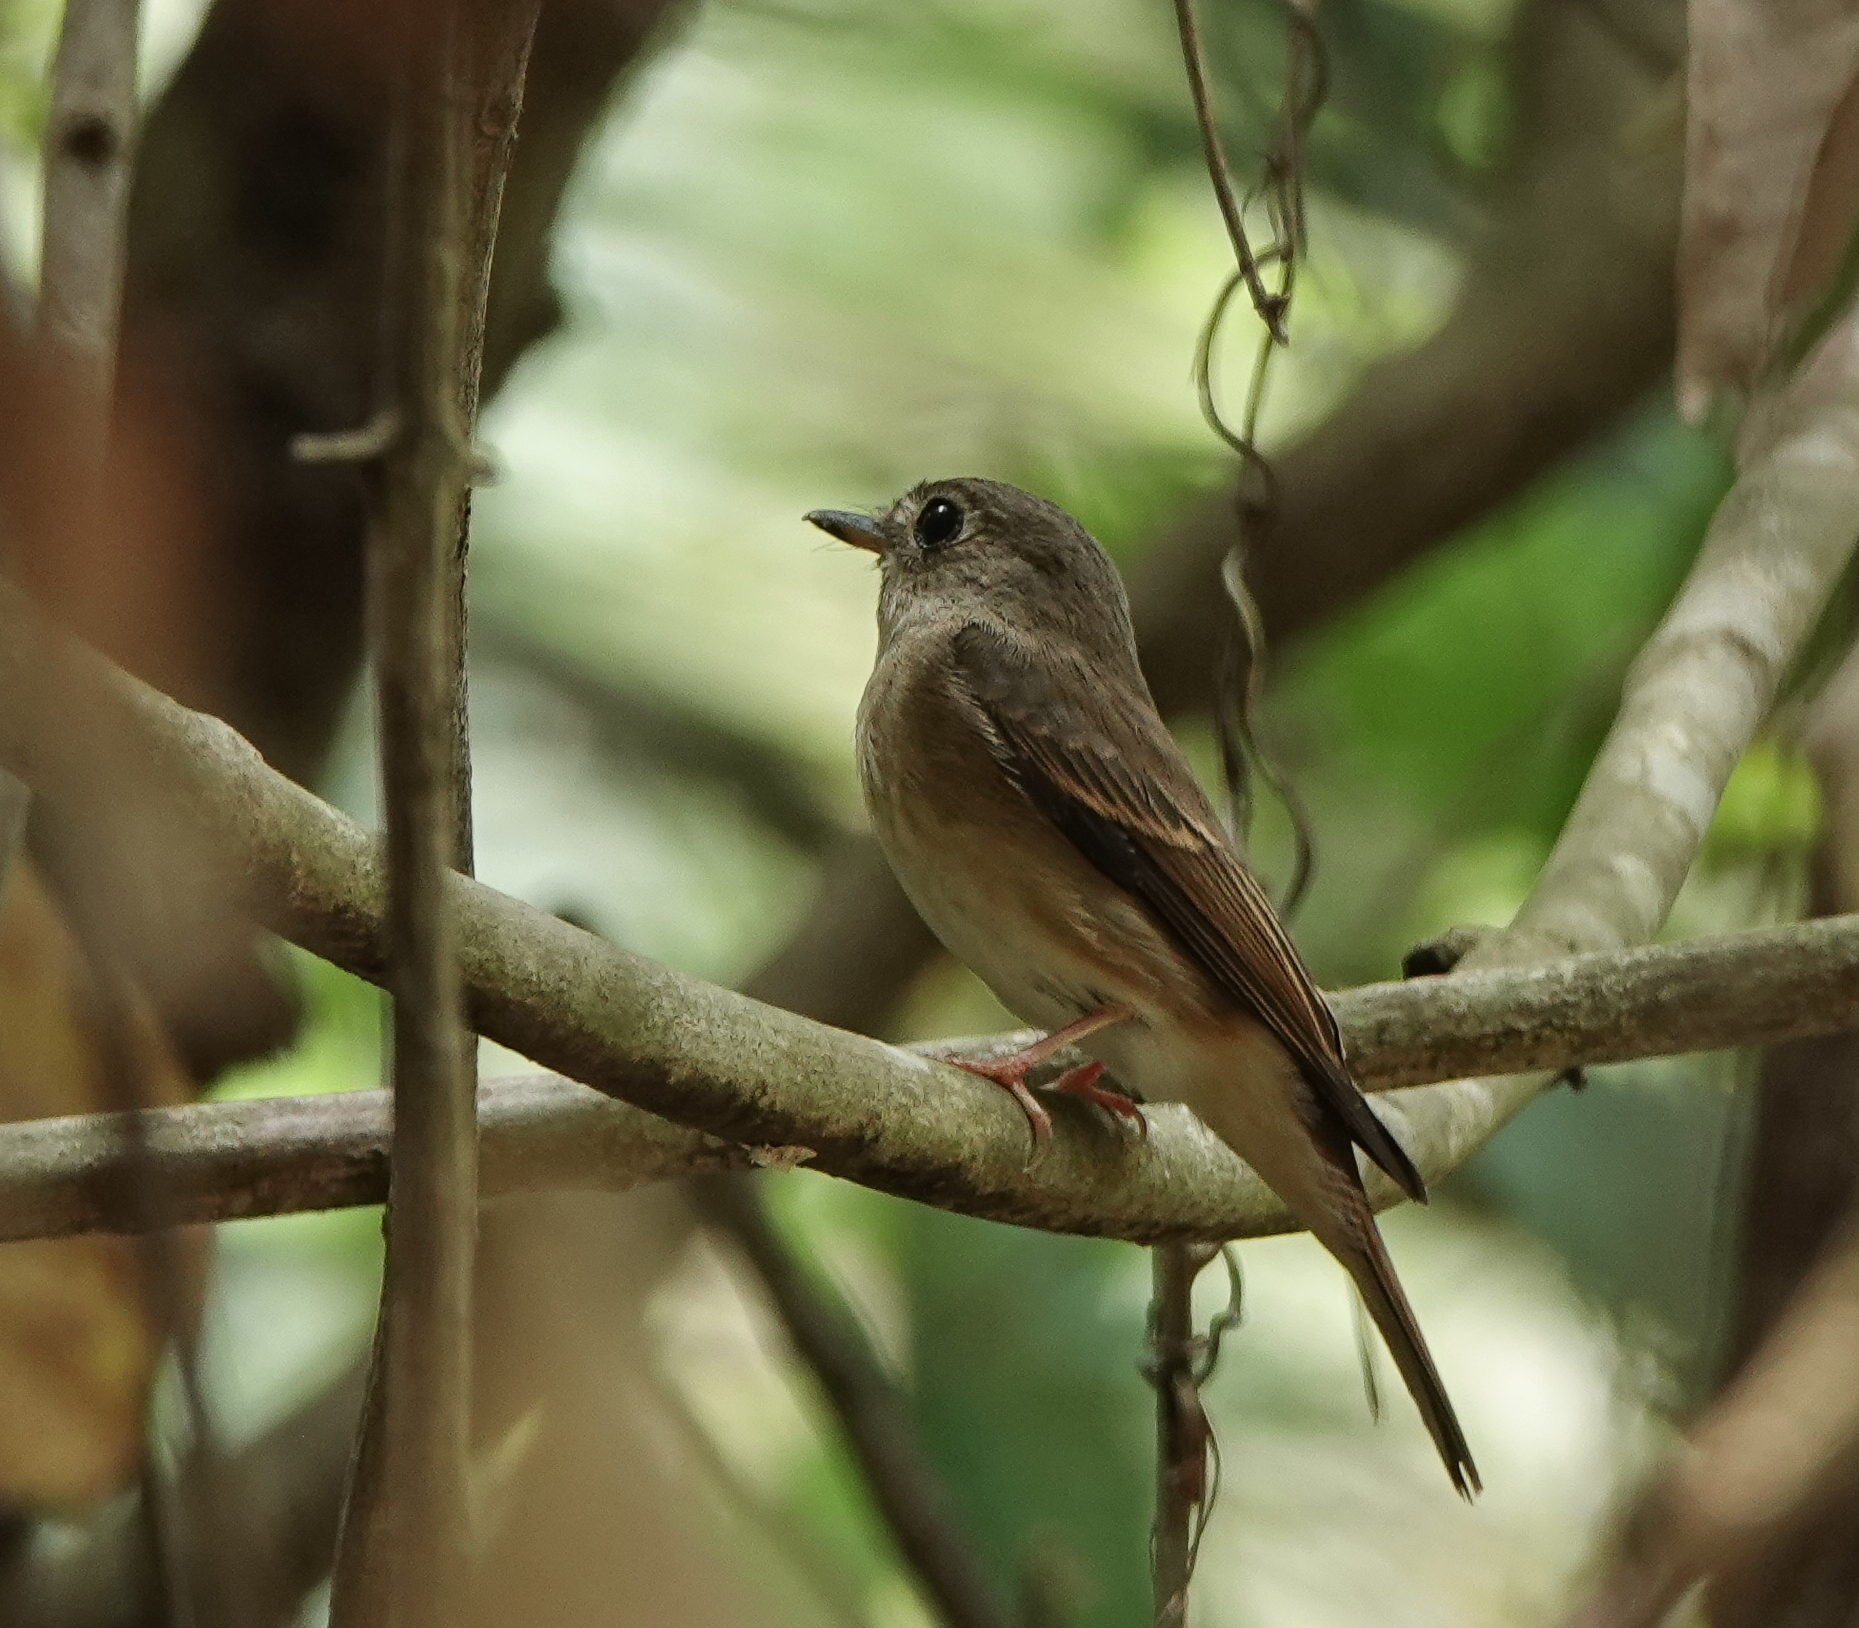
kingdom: Animalia
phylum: Chordata
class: Aves
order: Passeriformes
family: Muscicapidae
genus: Muscicapa
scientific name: Muscicapa muttui
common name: Brown-breasted flycatcher
